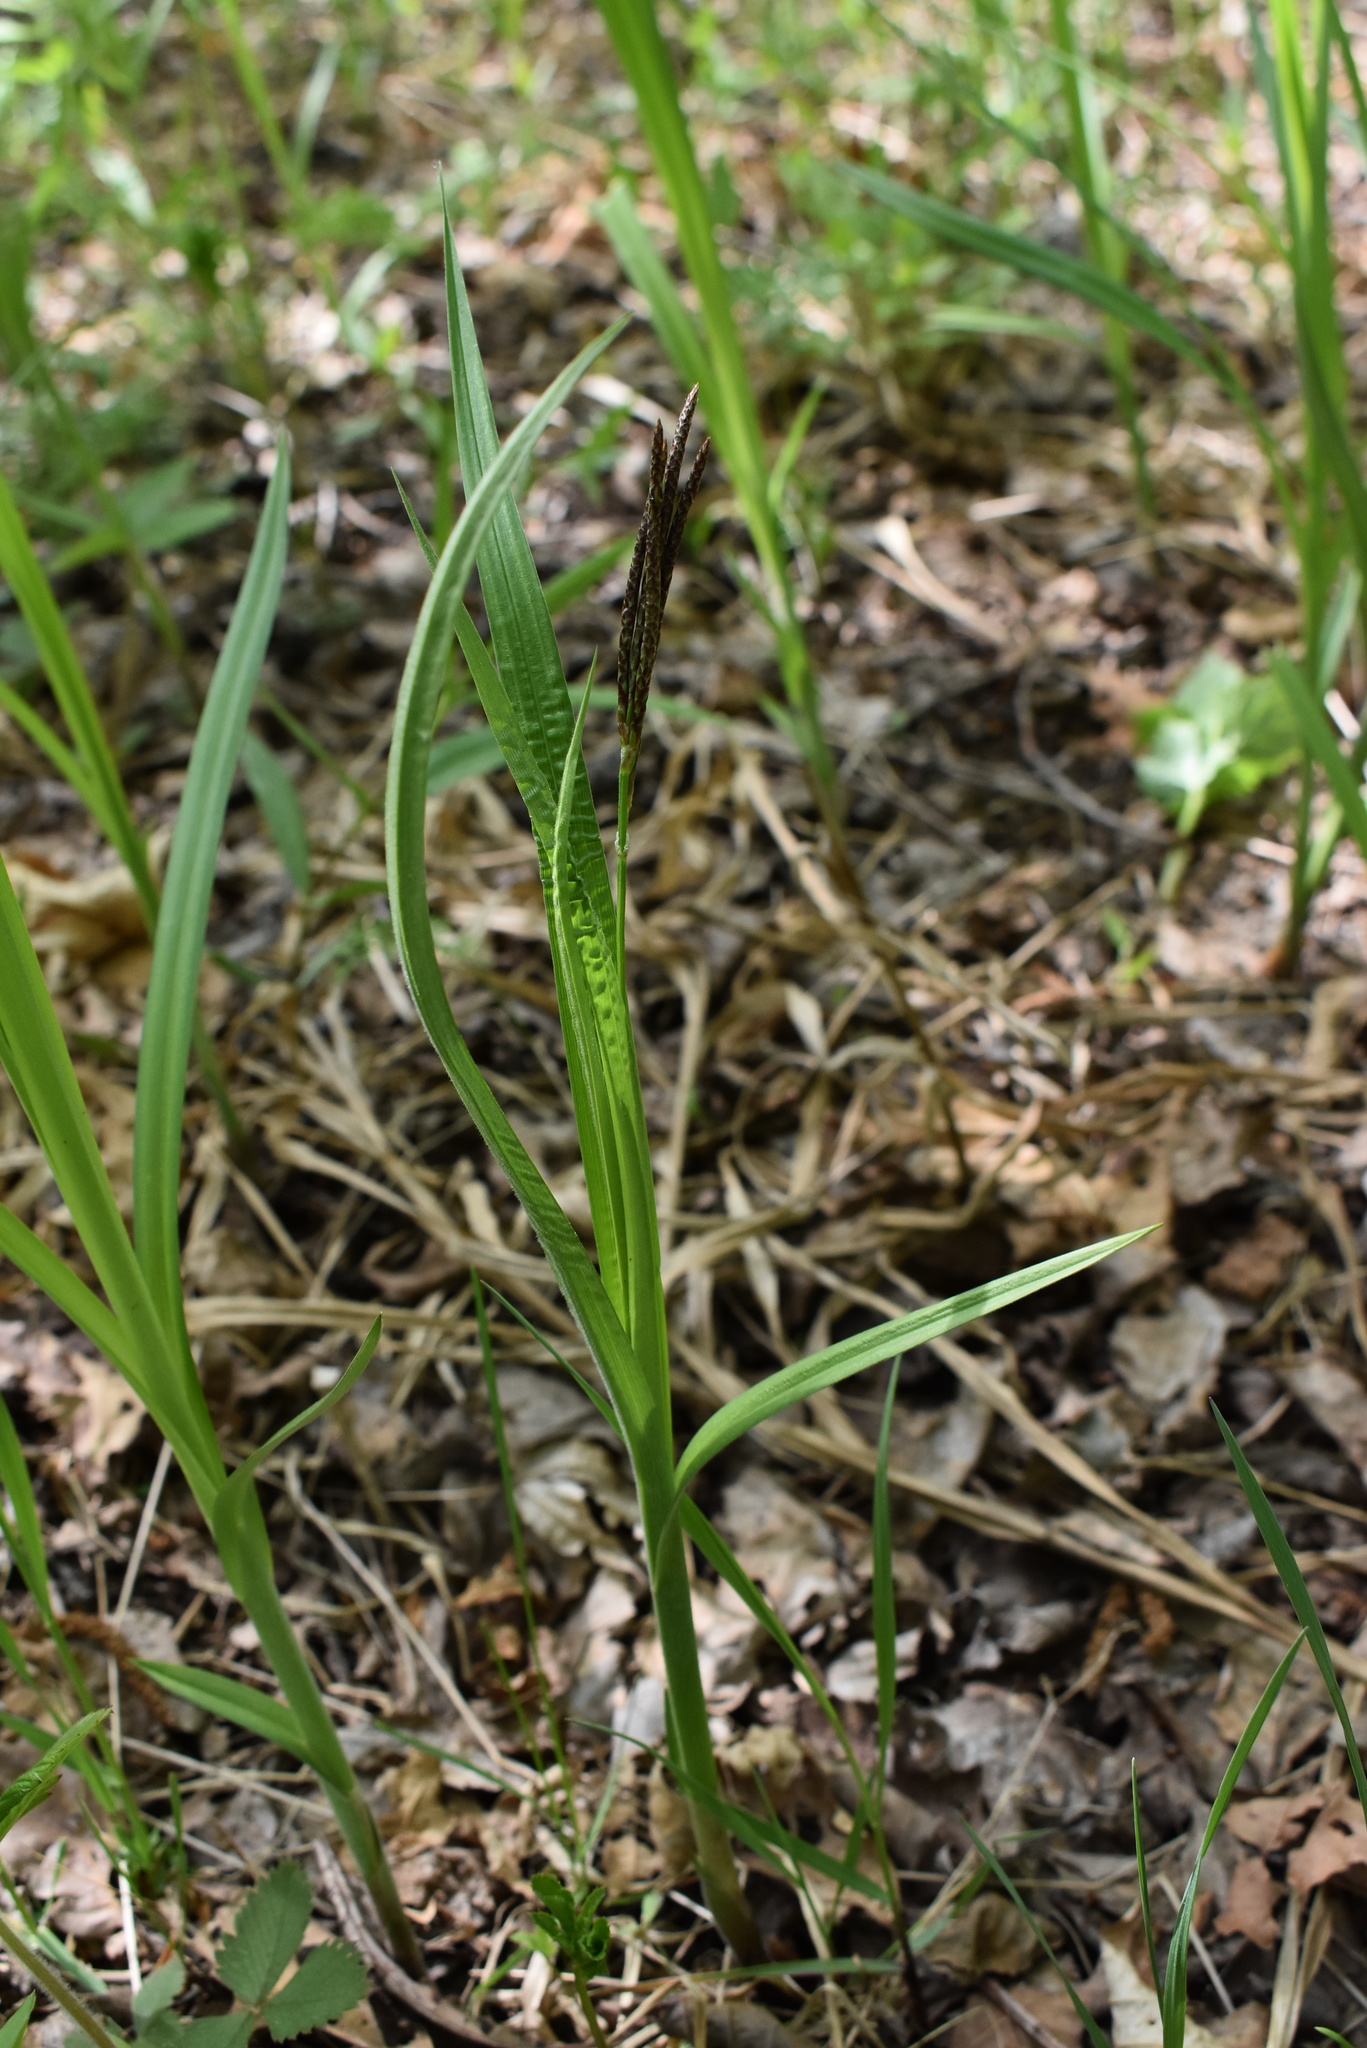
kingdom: Plantae
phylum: Tracheophyta
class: Liliopsida
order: Poales
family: Cyperaceae
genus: Carex
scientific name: Carex sordida
